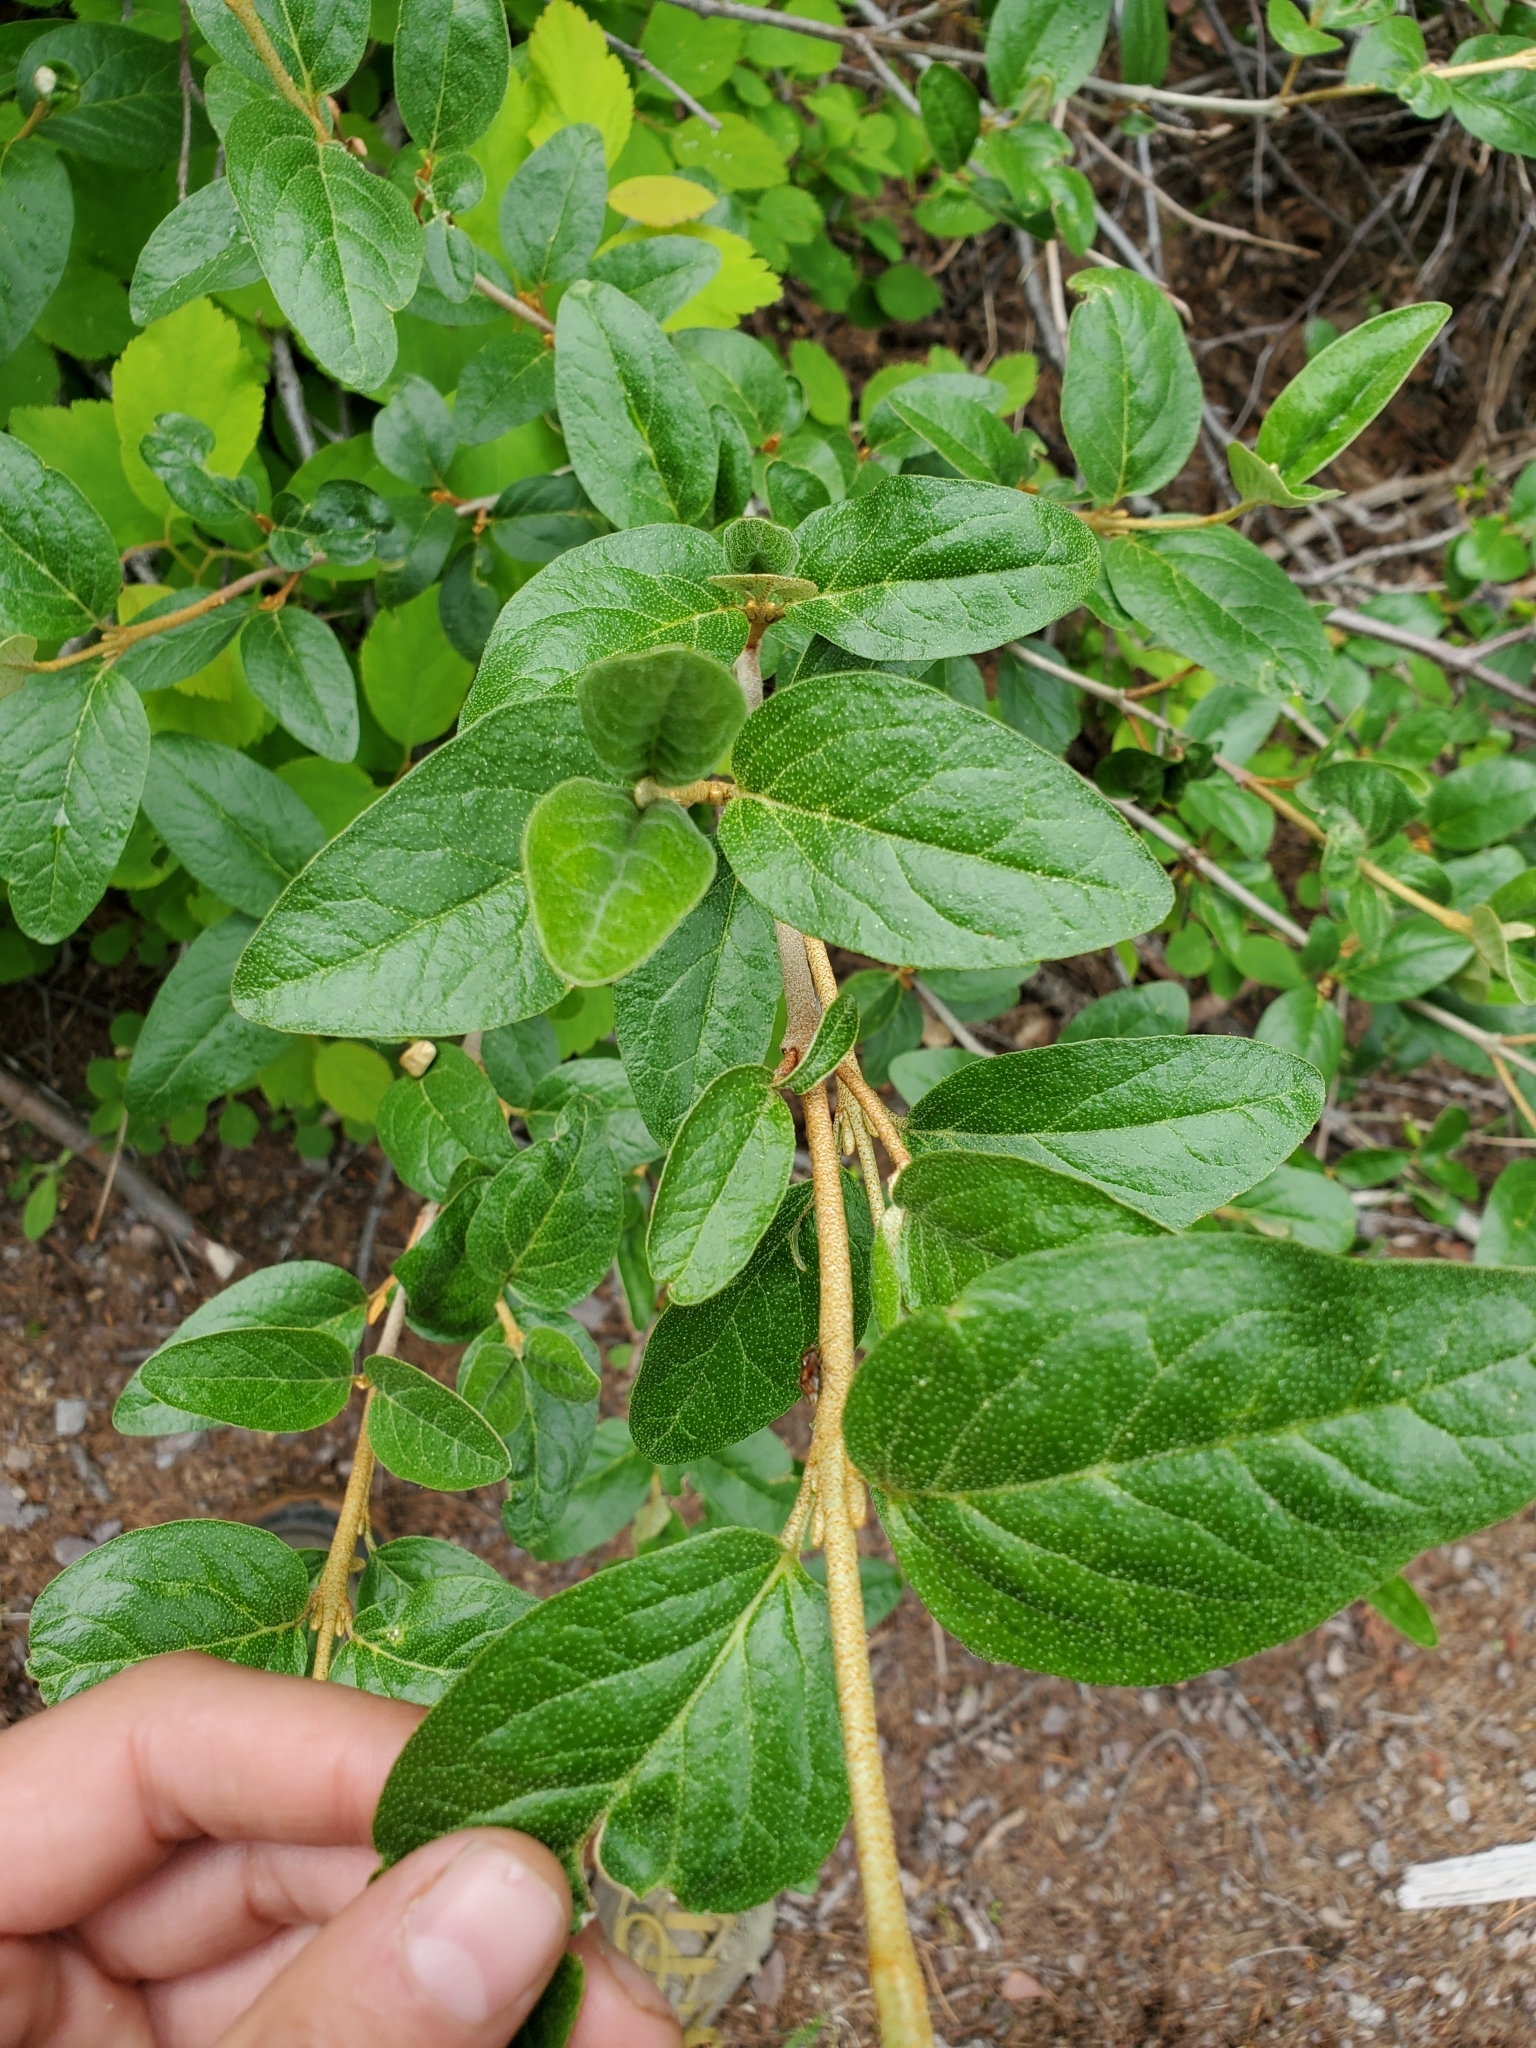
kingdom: Plantae
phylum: Tracheophyta
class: Magnoliopsida
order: Rosales
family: Elaeagnaceae
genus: Shepherdia
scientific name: Shepherdia canadensis
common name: Soapberry
